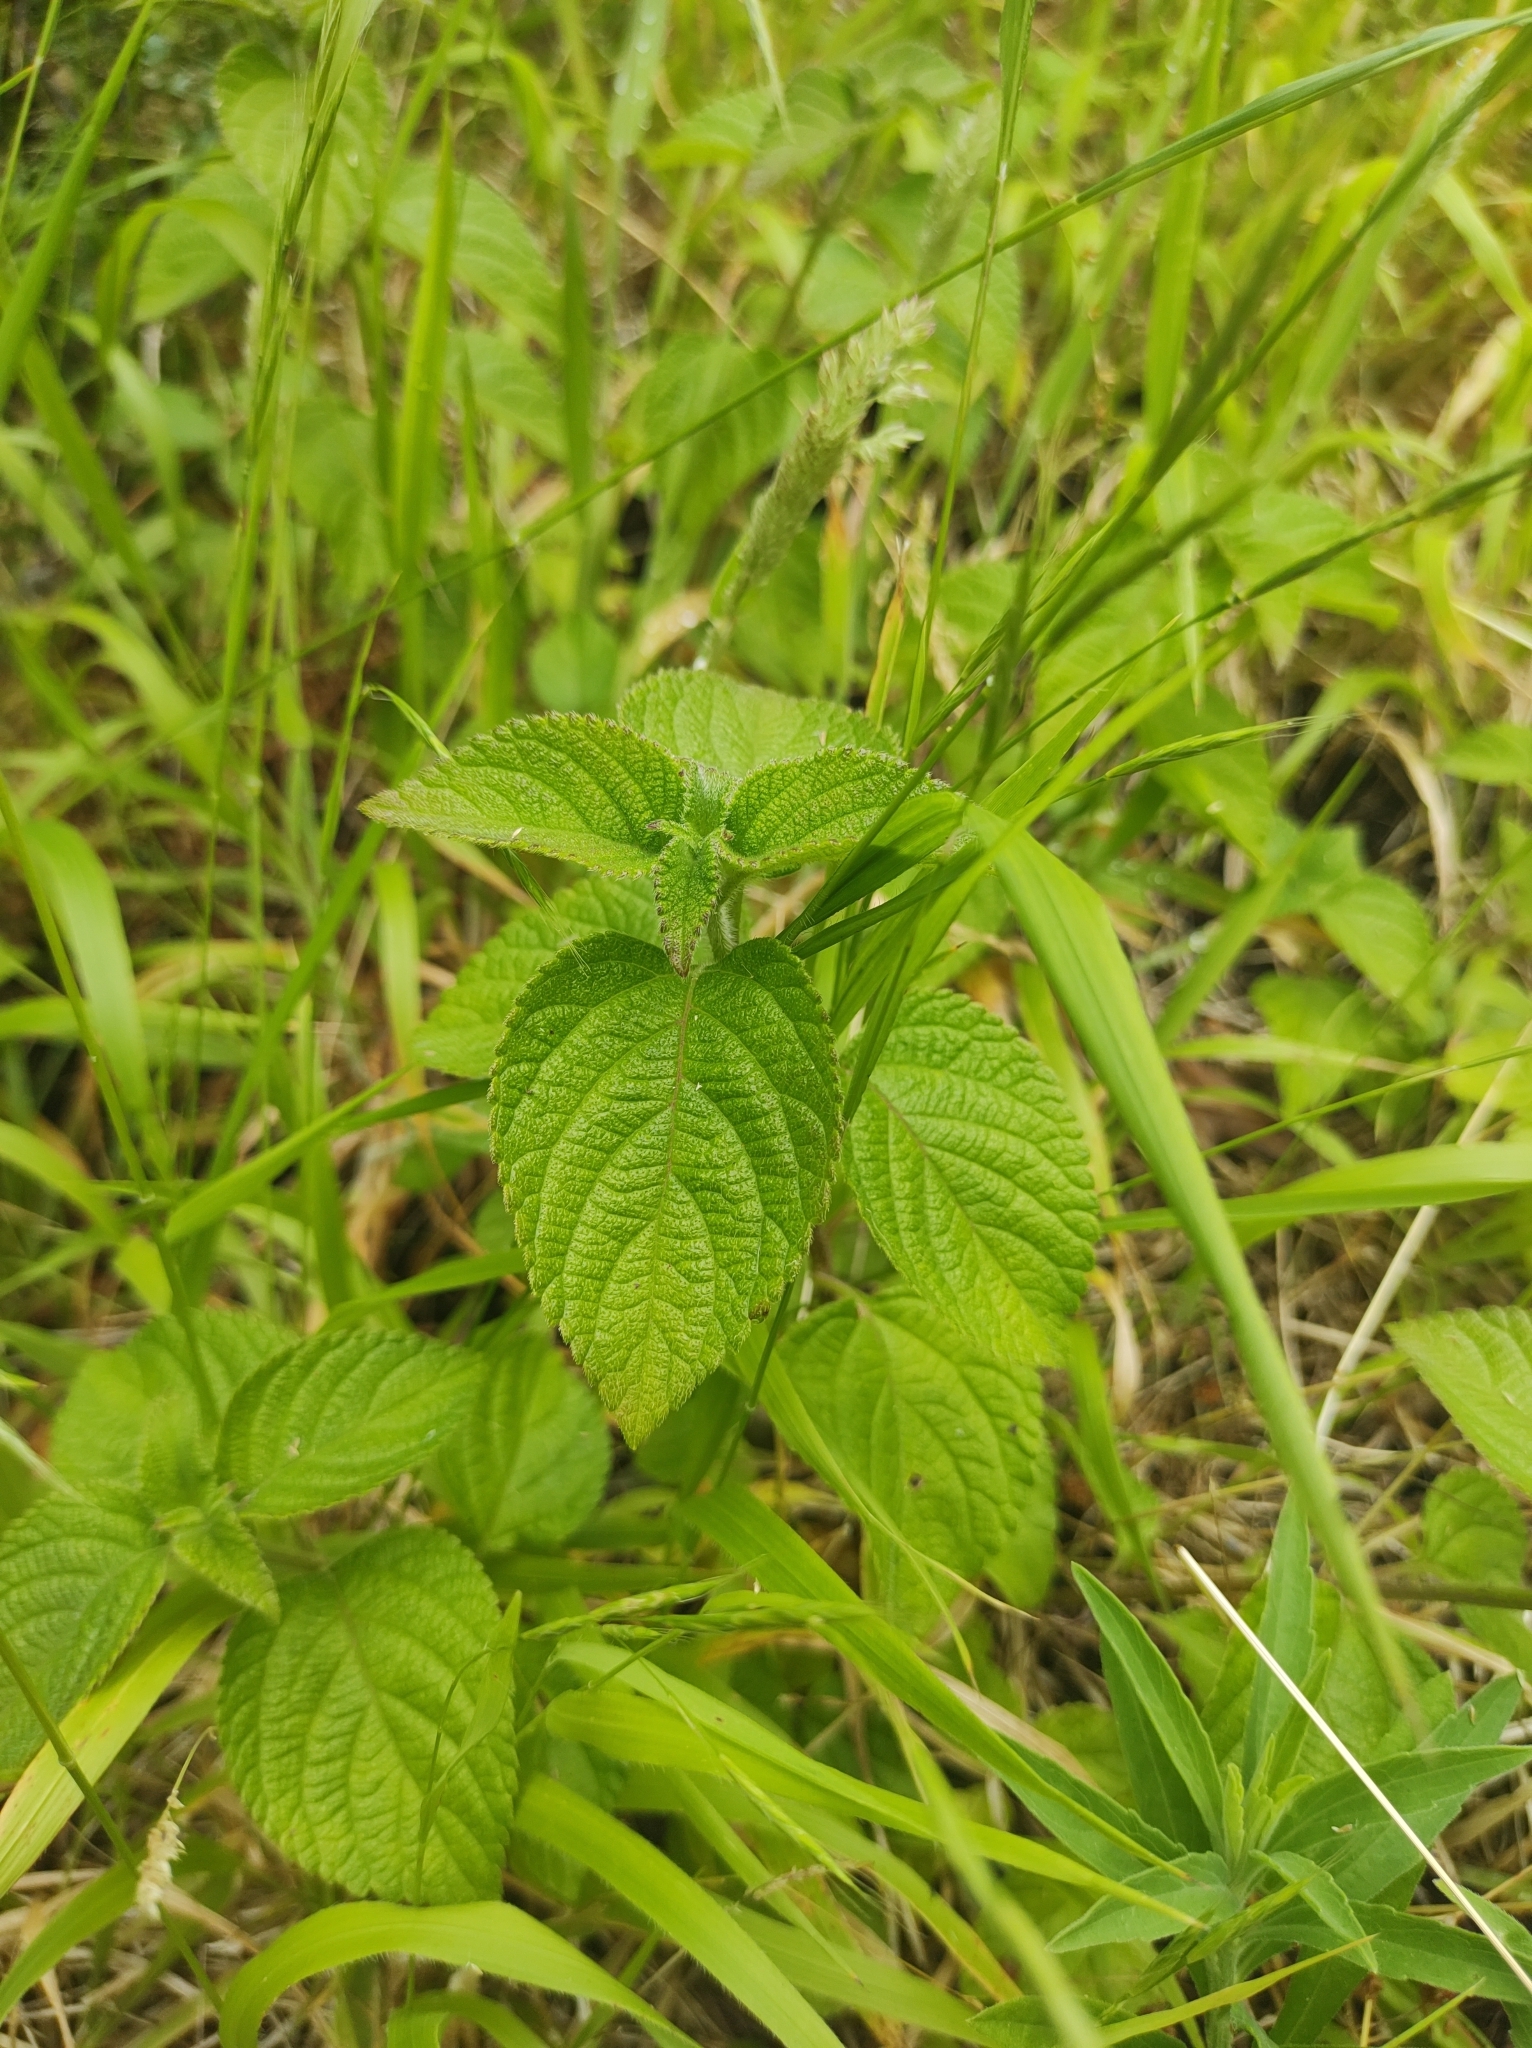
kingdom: Plantae
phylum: Tracheophyta
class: Magnoliopsida
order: Lamiales
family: Verbenaceae
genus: Lantana
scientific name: Lantana camara
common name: Lantana
